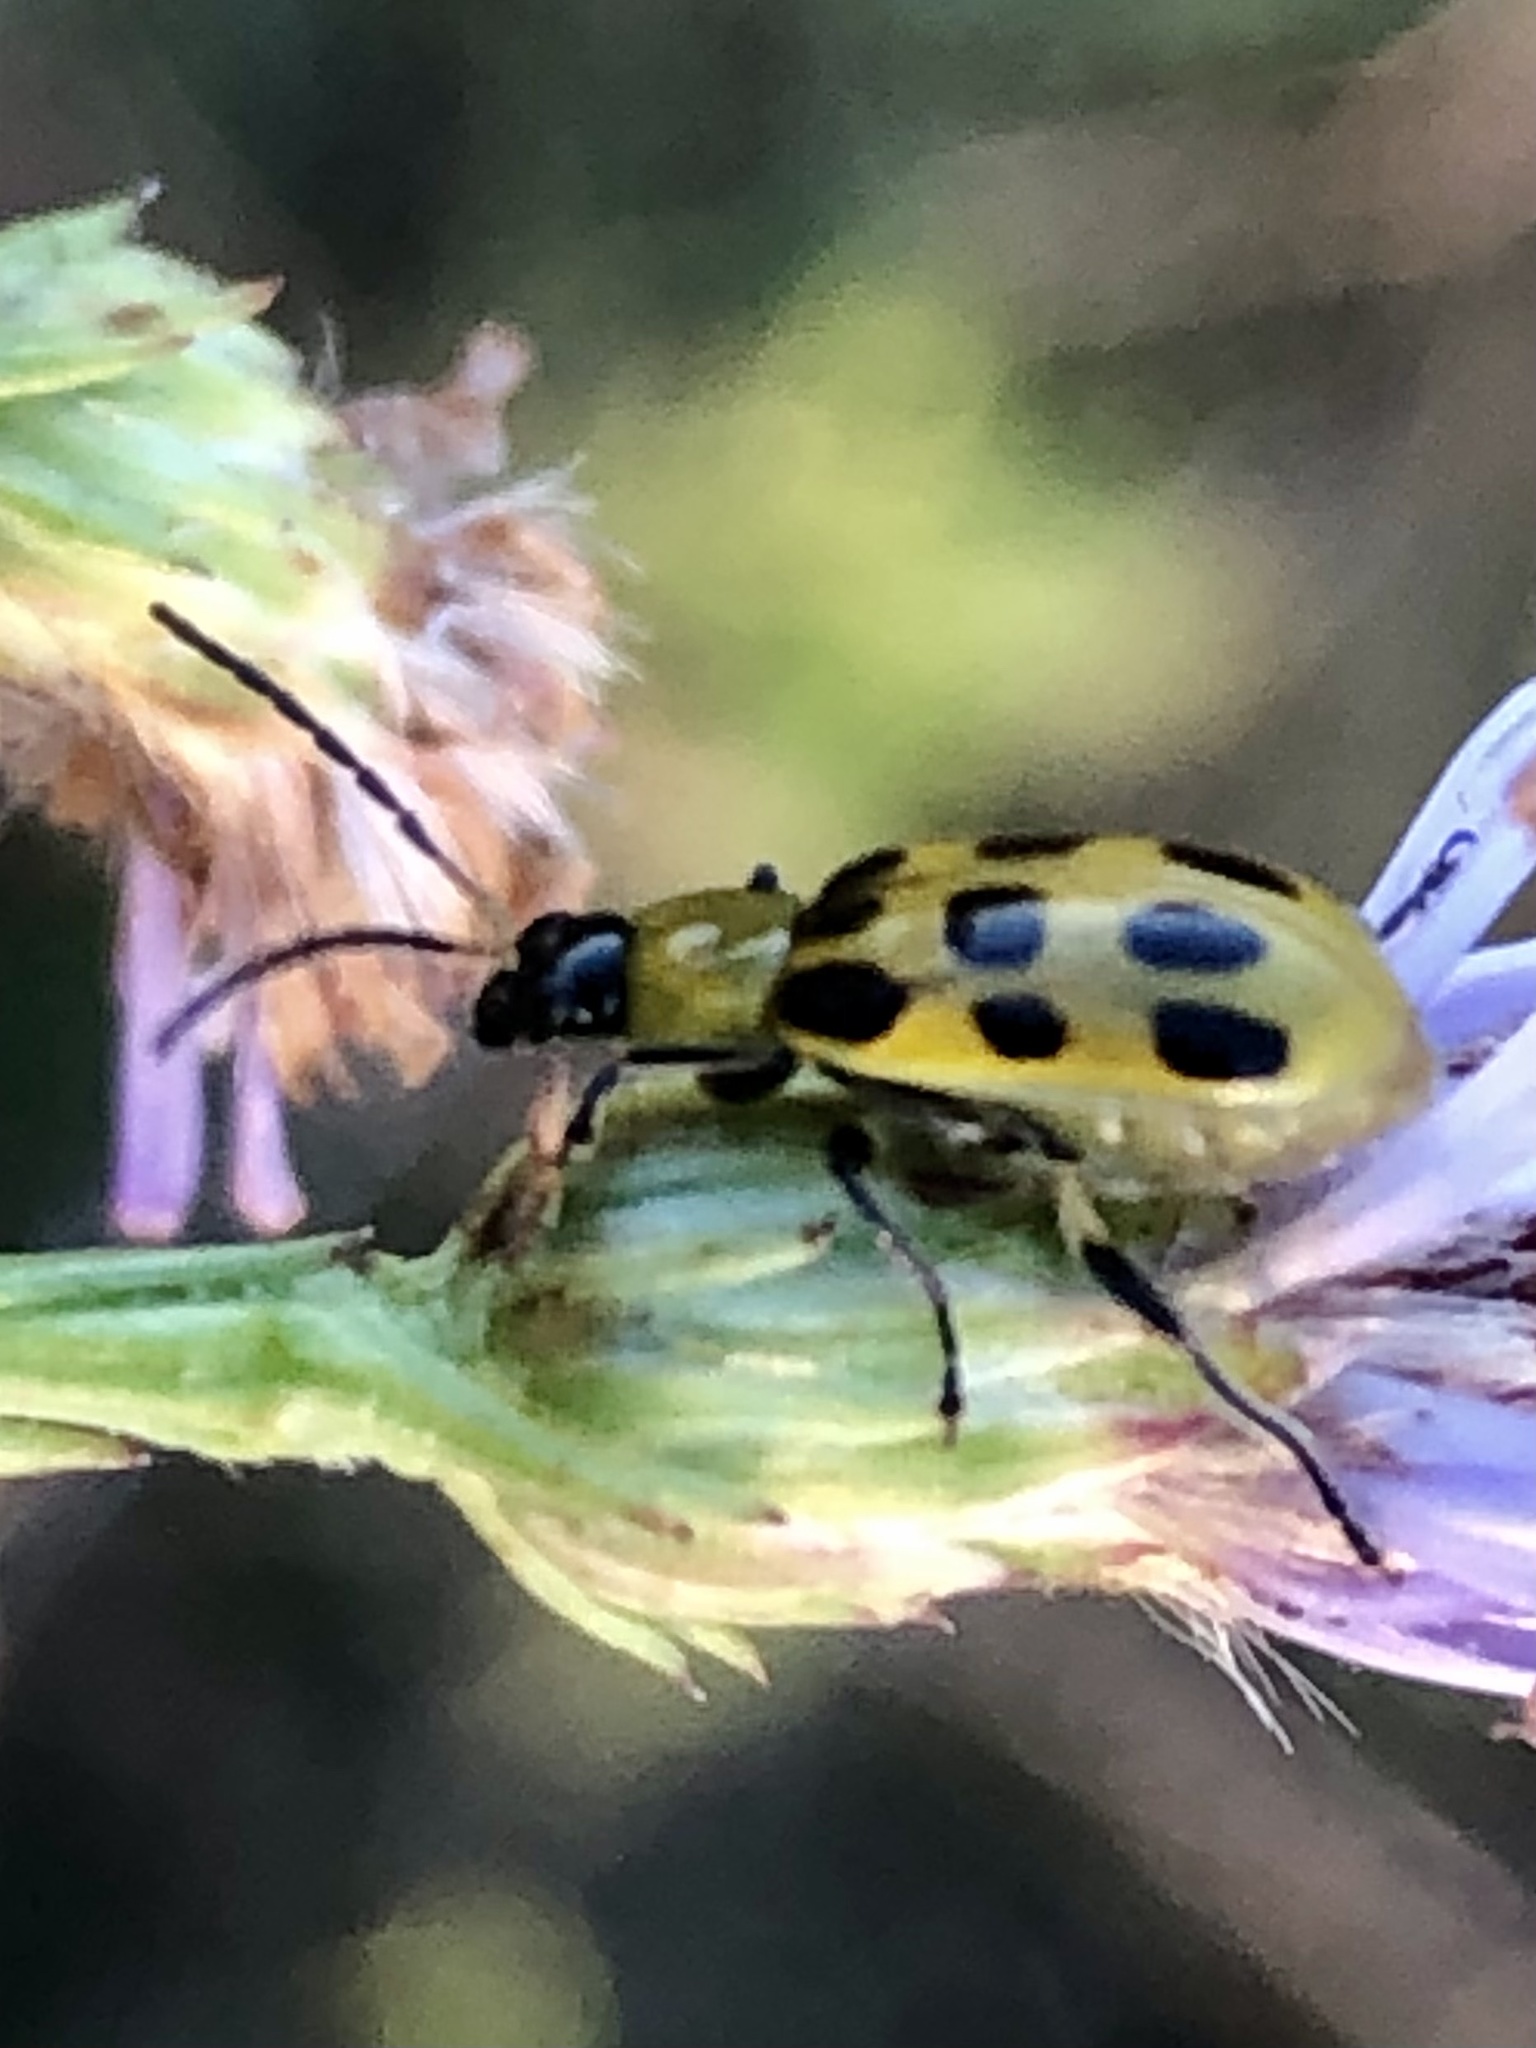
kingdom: Animalia
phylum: Arthropoda
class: Insecta
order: Coleoptera
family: Chrysomelidae
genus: Diabrotica
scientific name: Diabrotica undecimpunctata
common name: Spotted cucumber beetle
